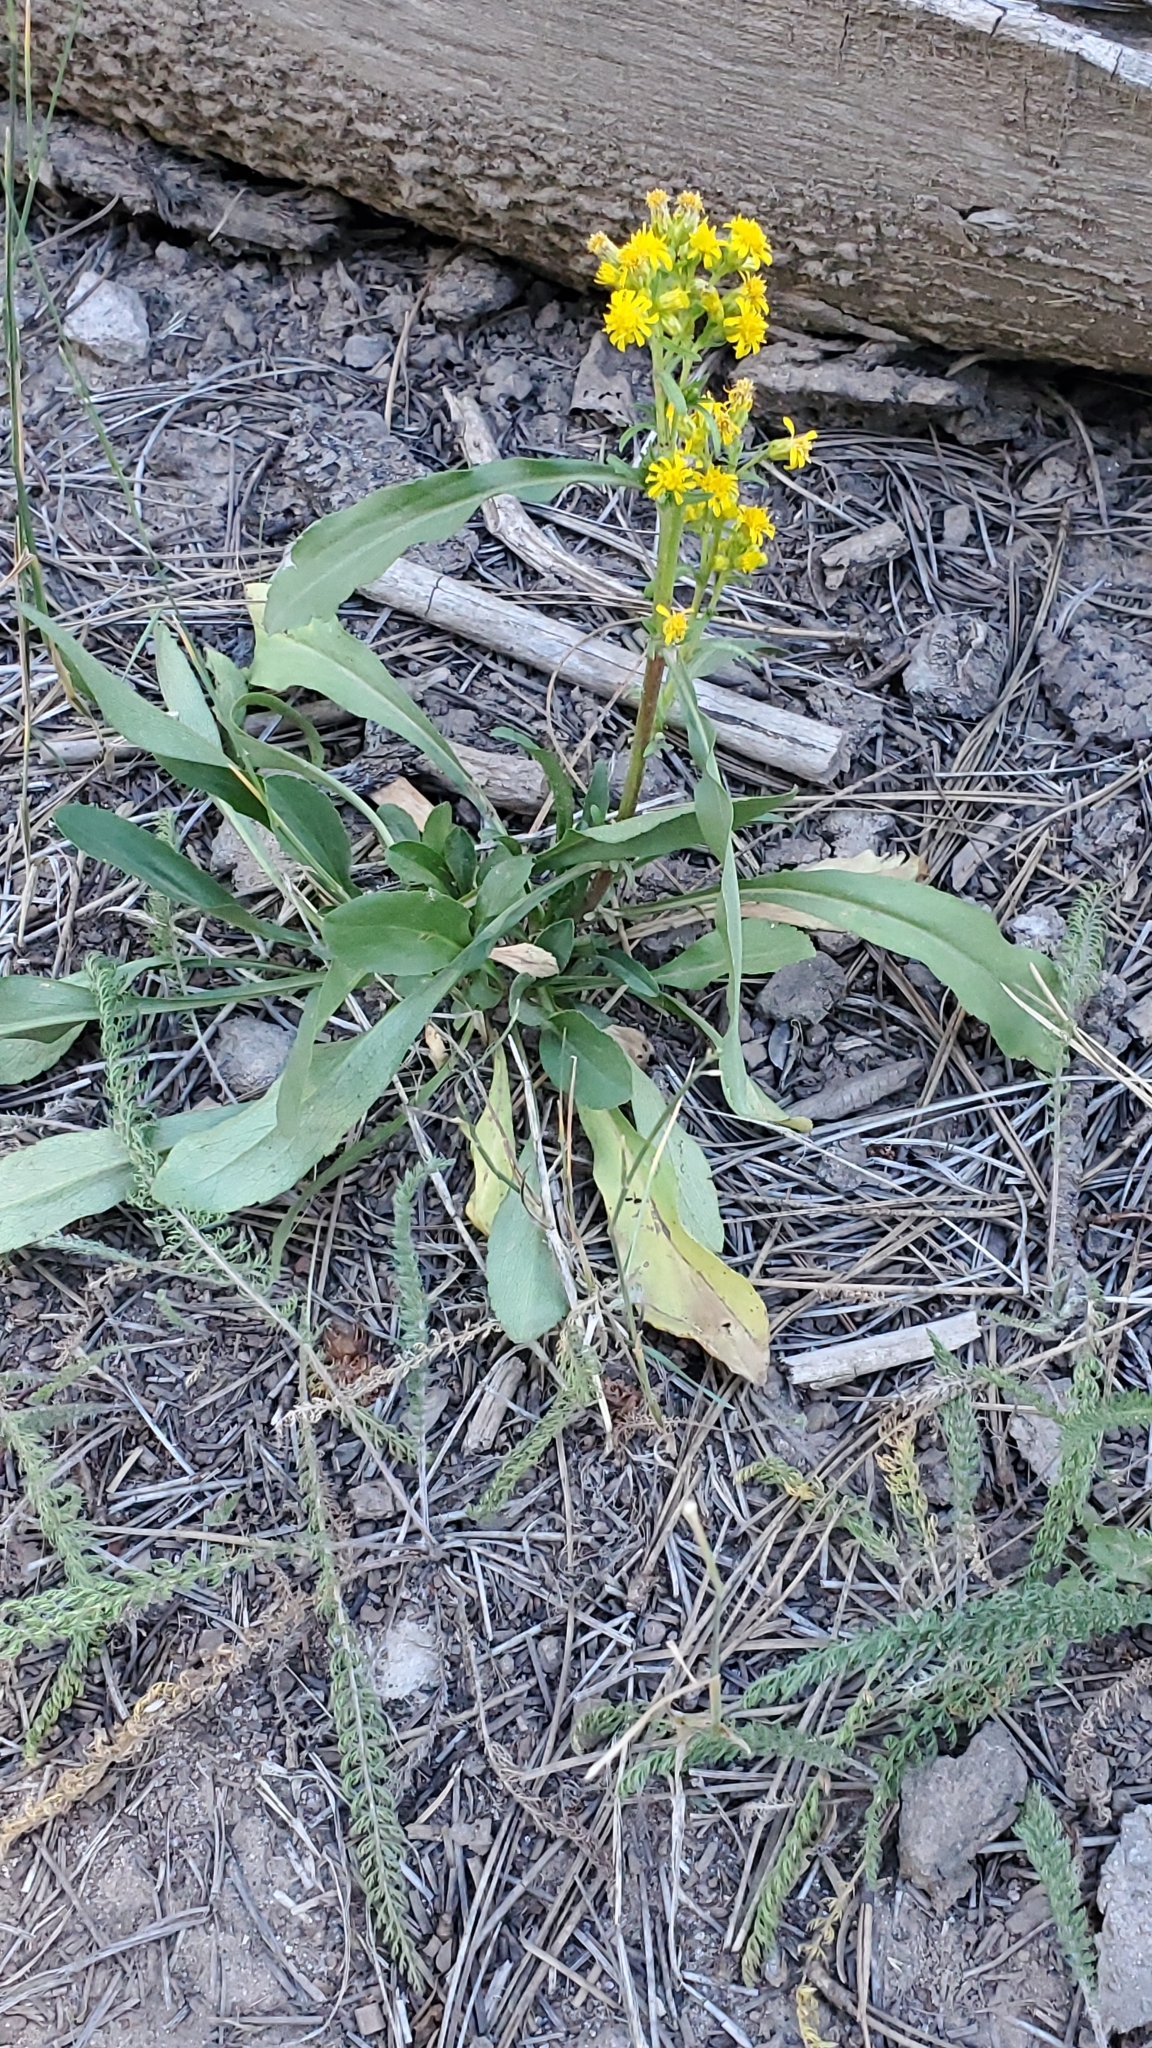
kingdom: Plantae
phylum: Tracheophyta
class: Magnoliopsida
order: Asterales
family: Asteraceae
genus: Oreochrysum
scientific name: Oreochrysum parryi
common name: Parry's goldenweed
